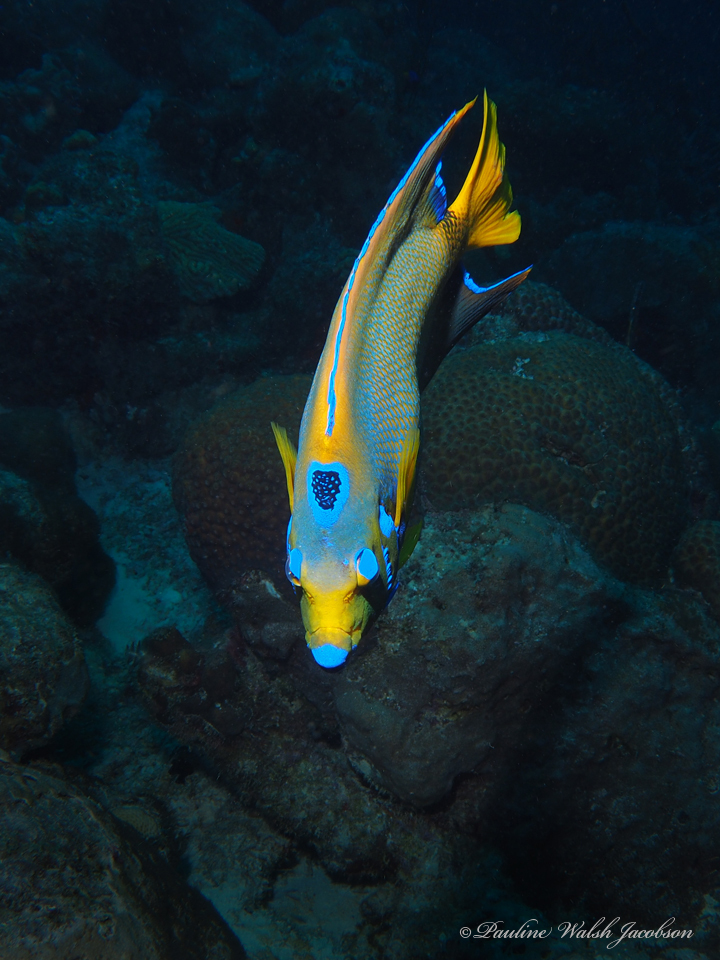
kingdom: Animalia
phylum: Chordata
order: Perciformes
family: Pomacanthidae
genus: Holacanthus
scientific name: Holacanthus ciliaris
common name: Queen angelfish
